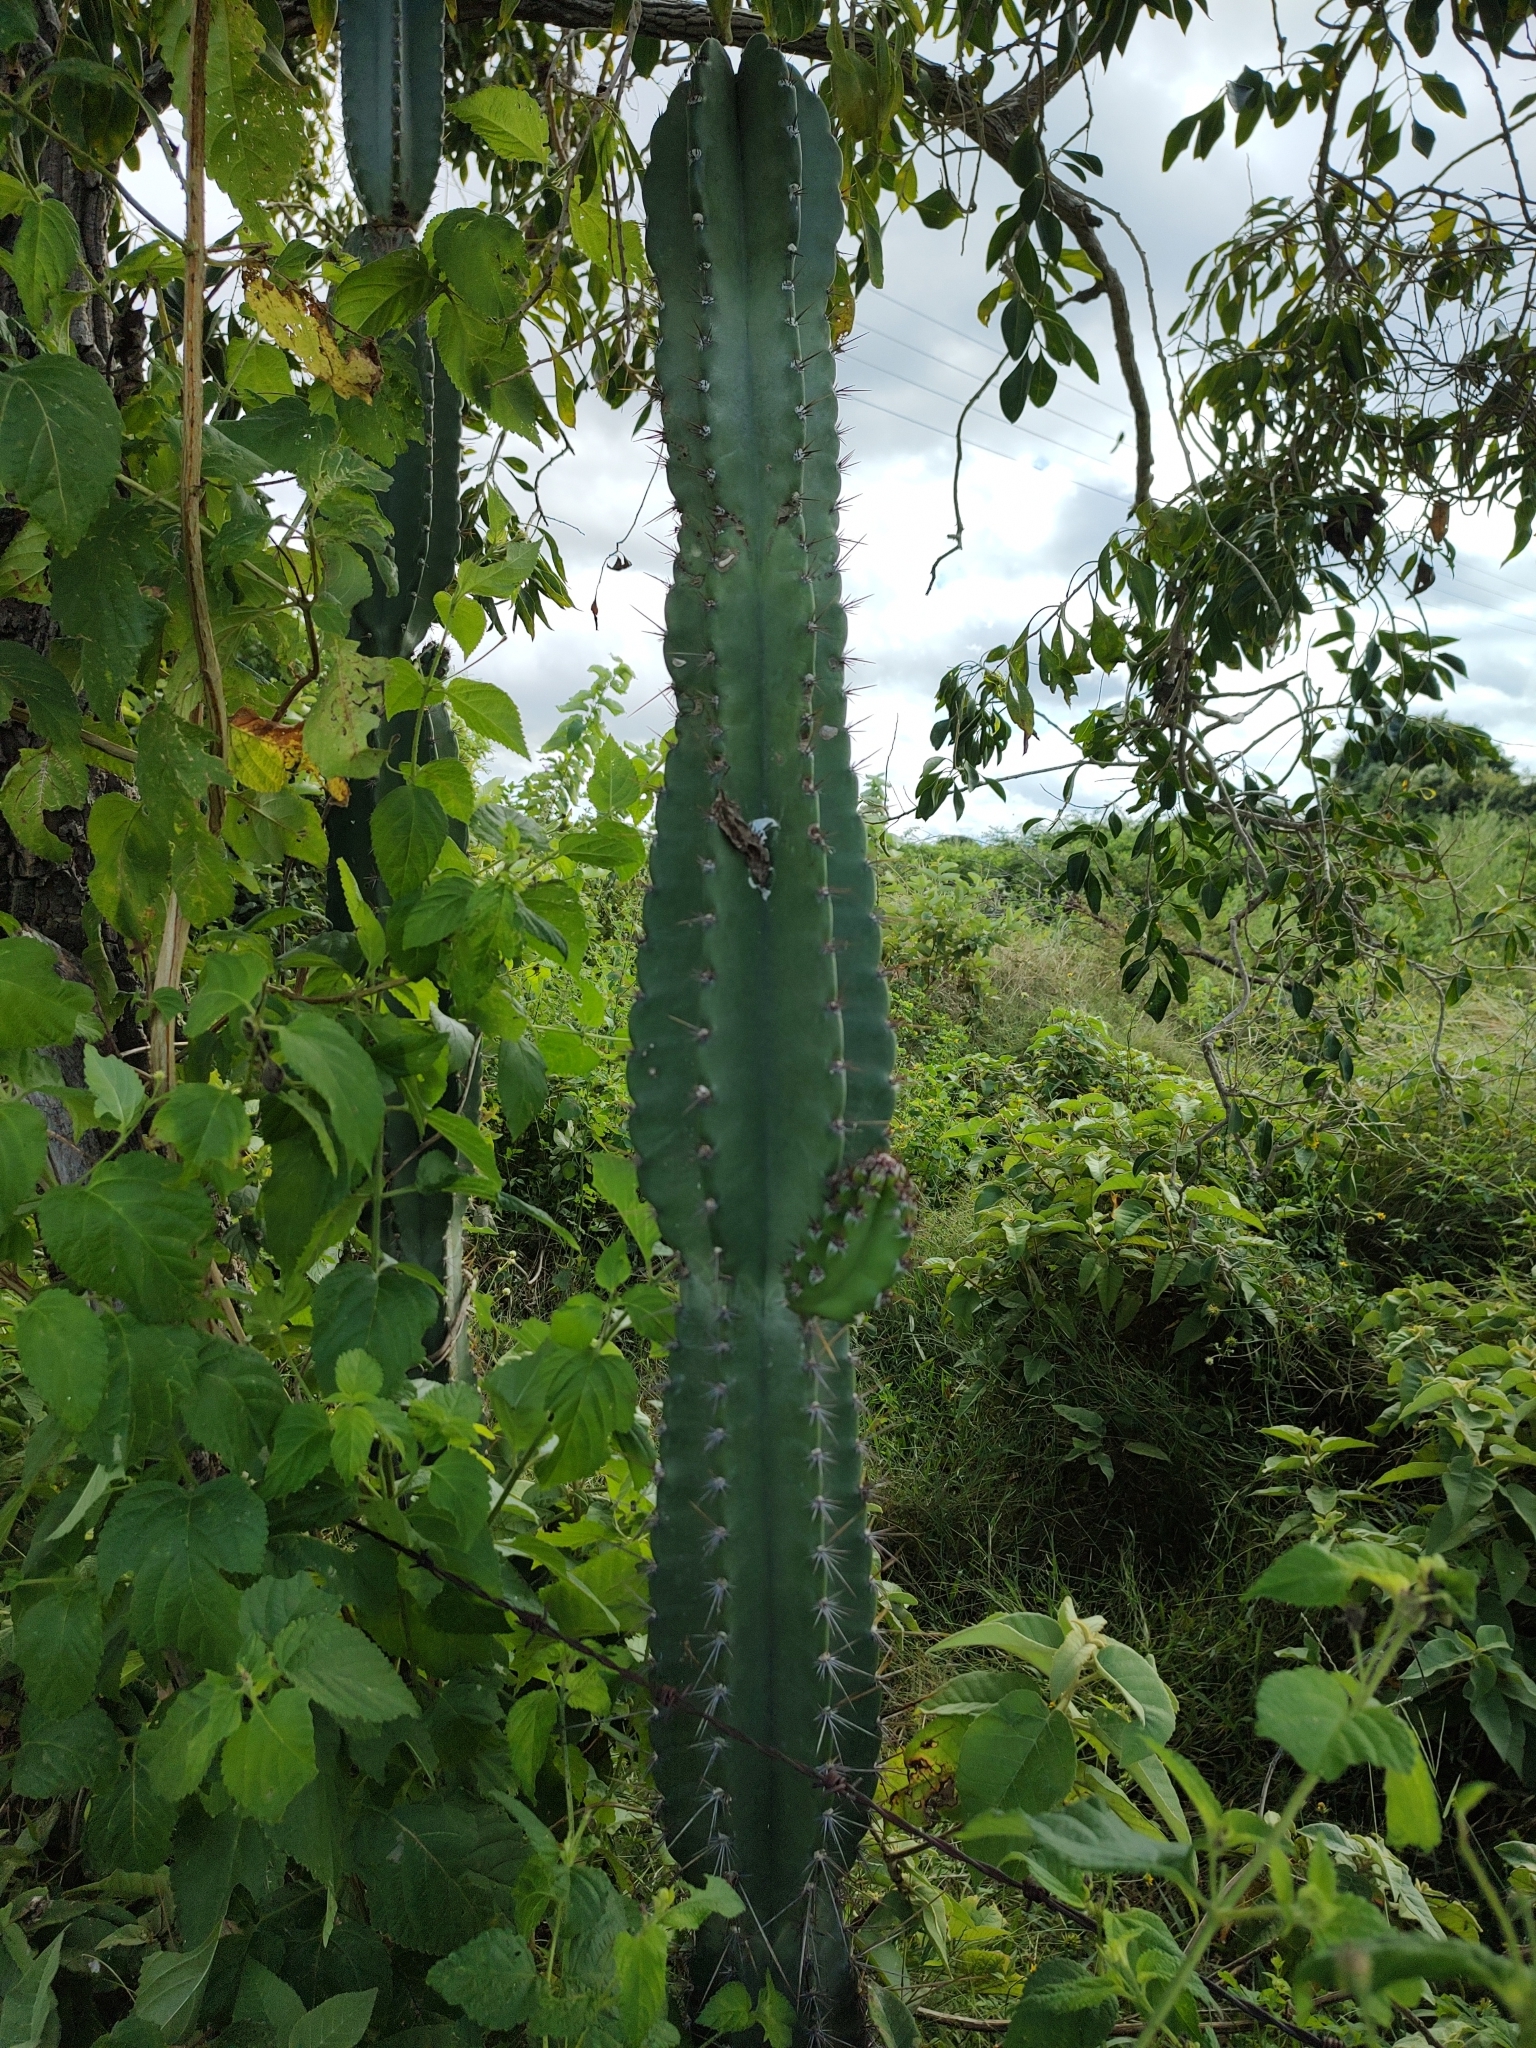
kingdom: Plantae
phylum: Tracheophyta
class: Magnoliopsida
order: Caryophyllales
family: Cactaceae
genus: Cereus
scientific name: Cereus jamacaru
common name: Queen-of-the-night
